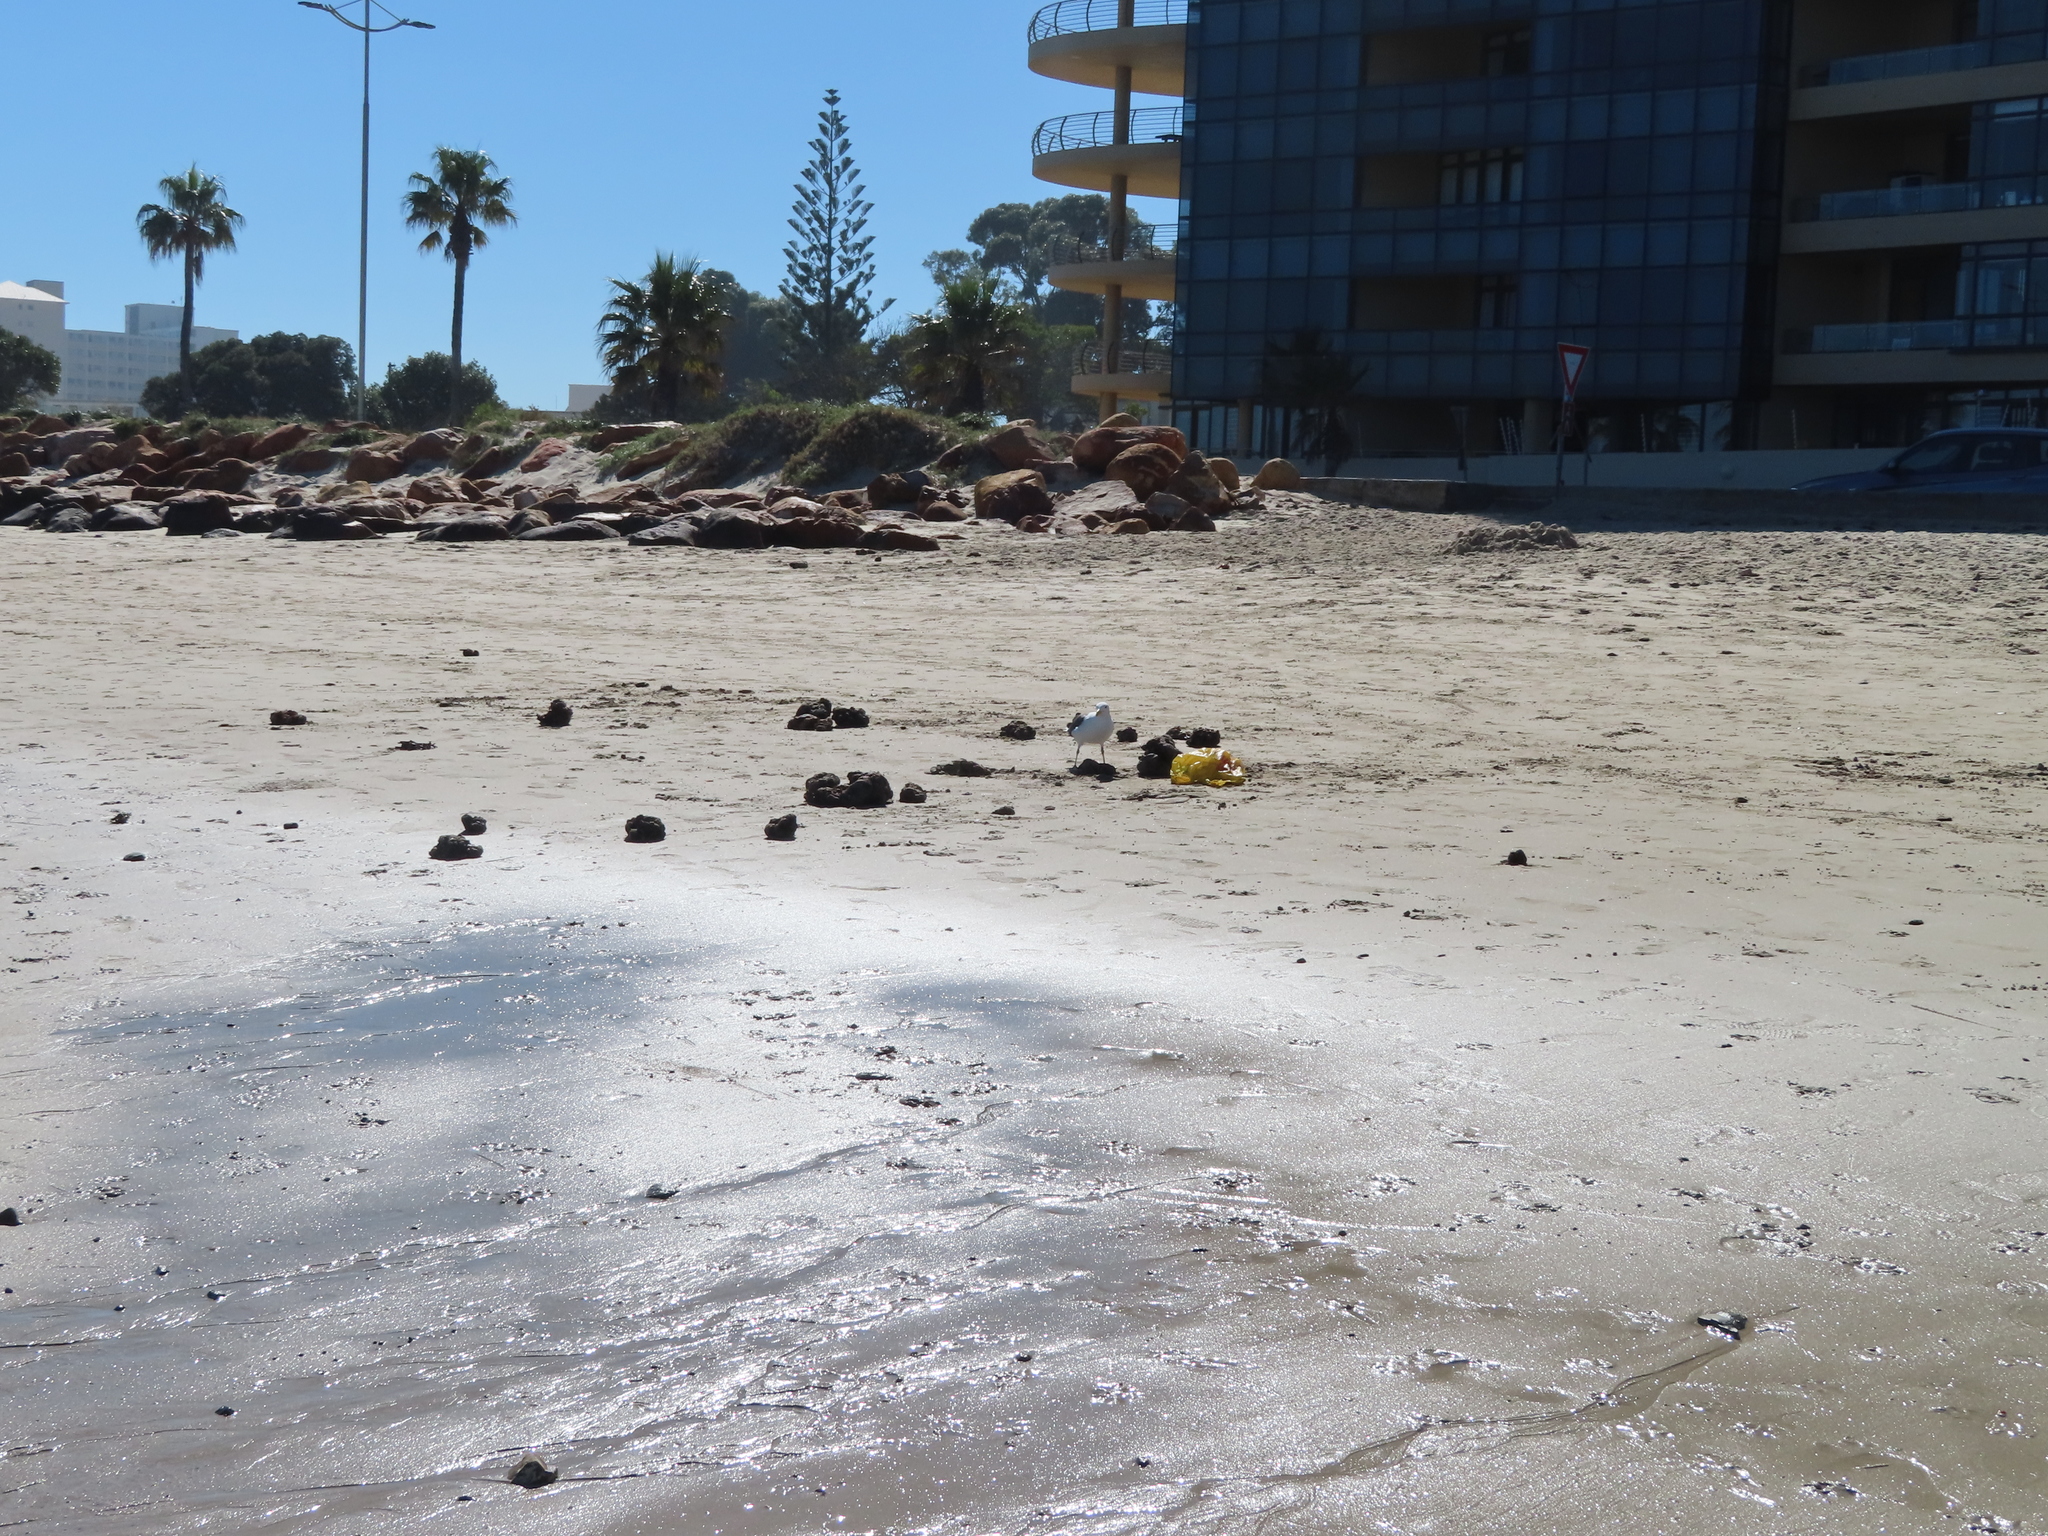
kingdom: Animalia
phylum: Chordata
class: Aves
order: Charadriiformes
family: Laridae
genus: Larus
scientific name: Larus dominicanus
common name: Kelp gull
